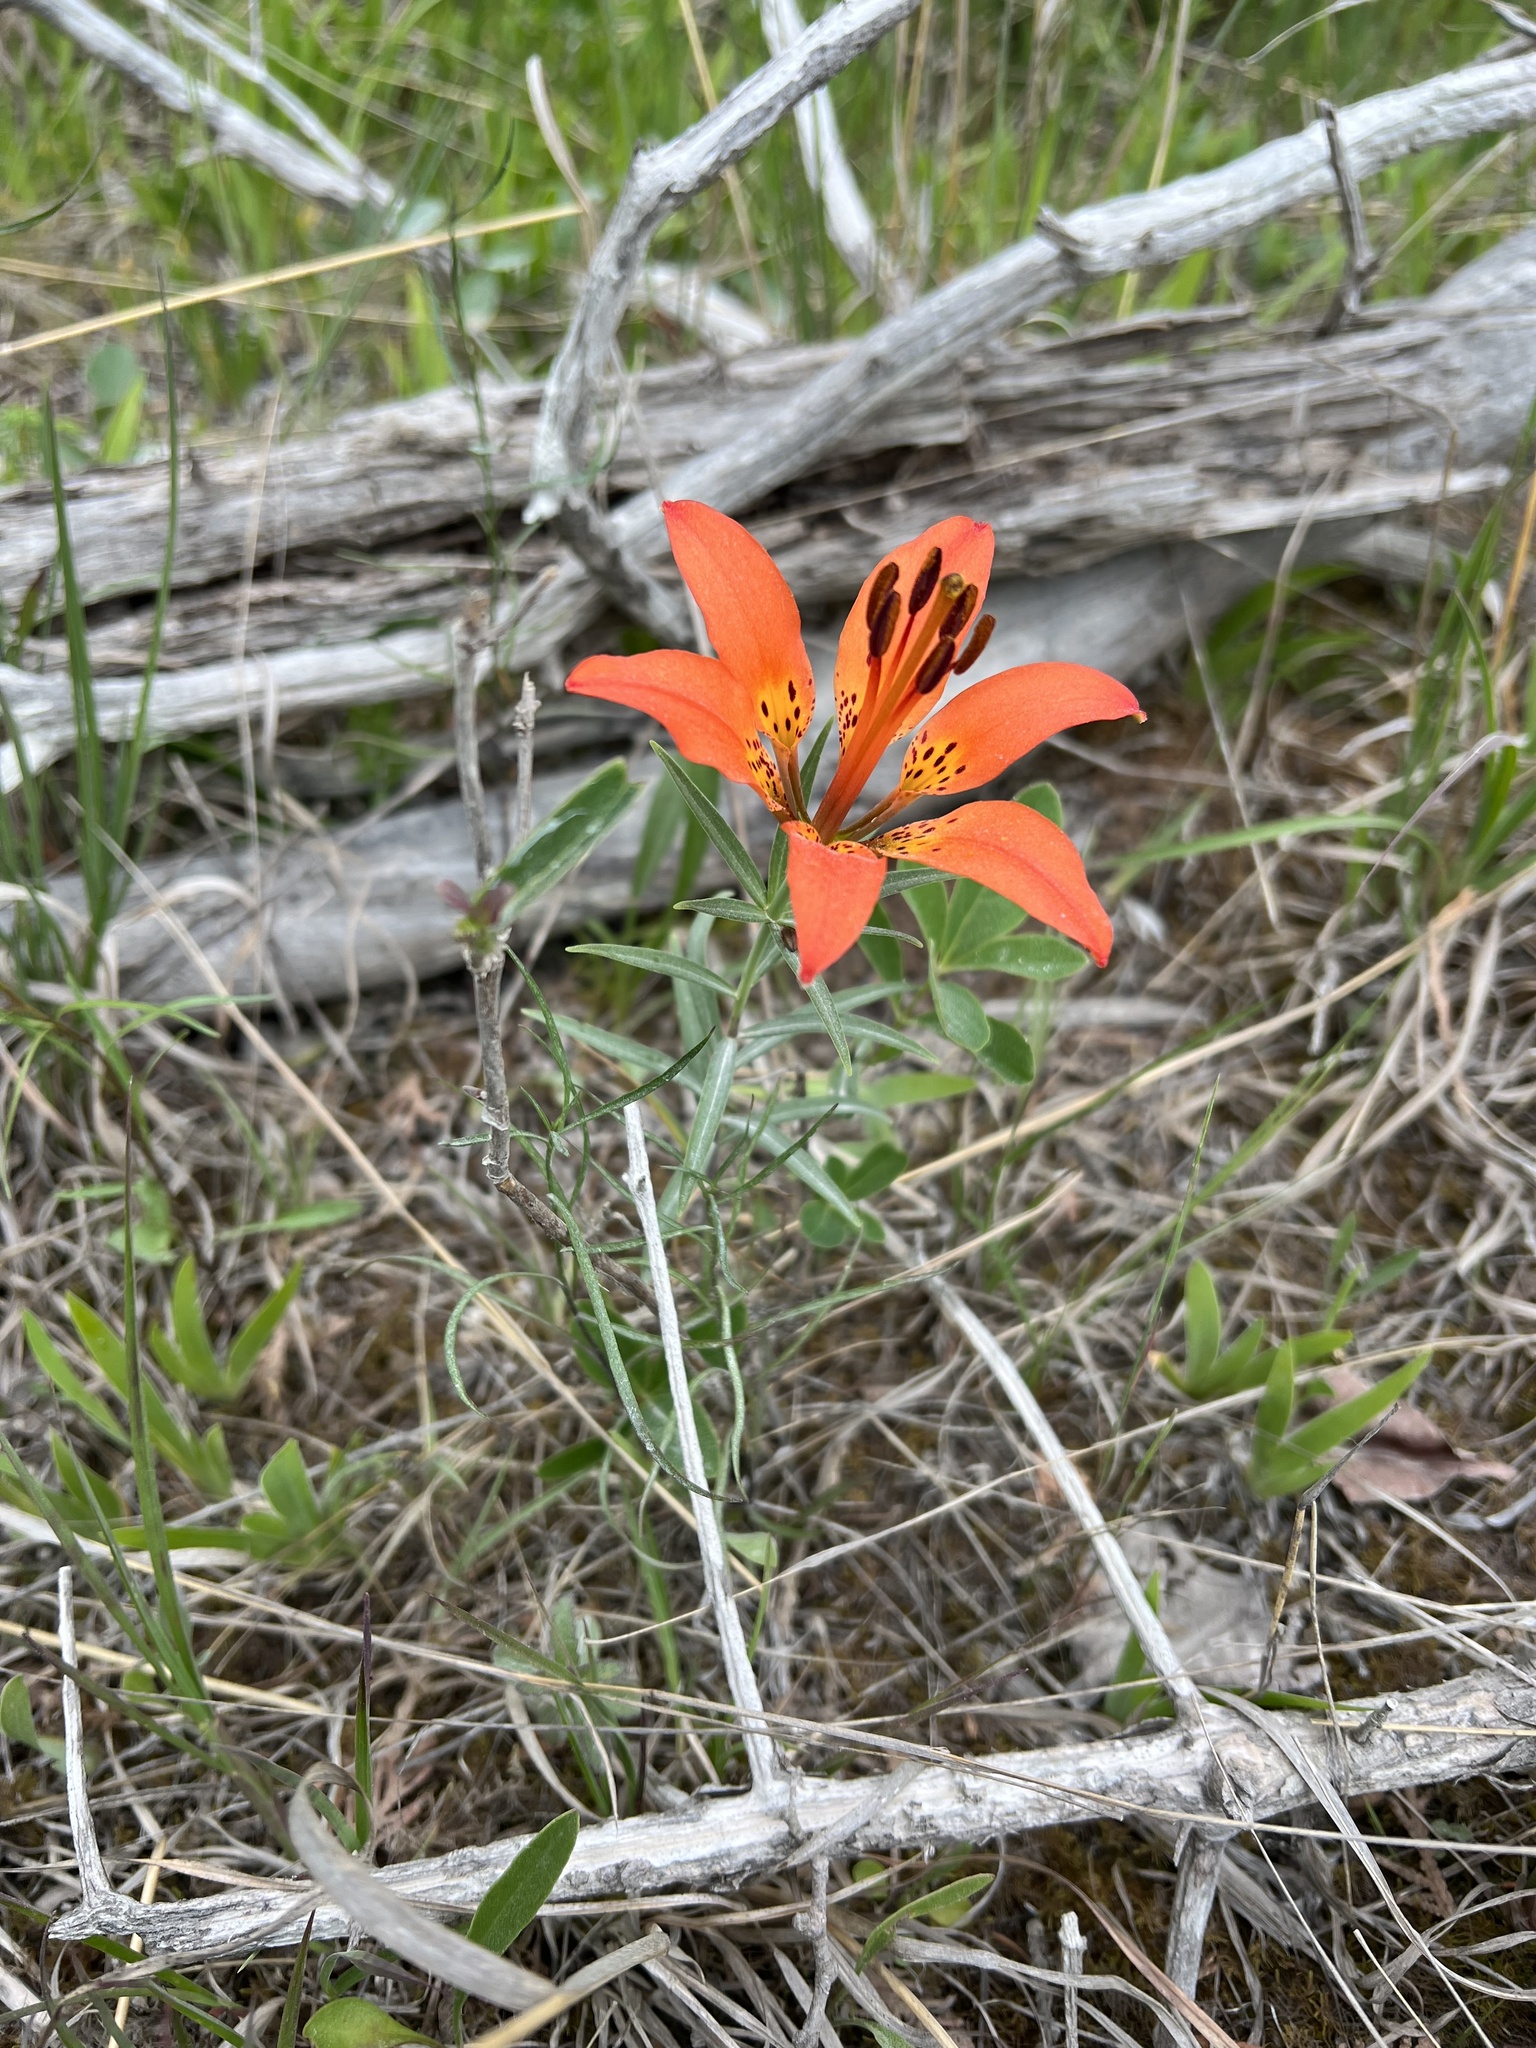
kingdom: Plantae
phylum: Tracheophyta
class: Liliopsida
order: Liliales
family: Liliaceae
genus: Lilium
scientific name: Lilium philadelphicum
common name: Red lily
